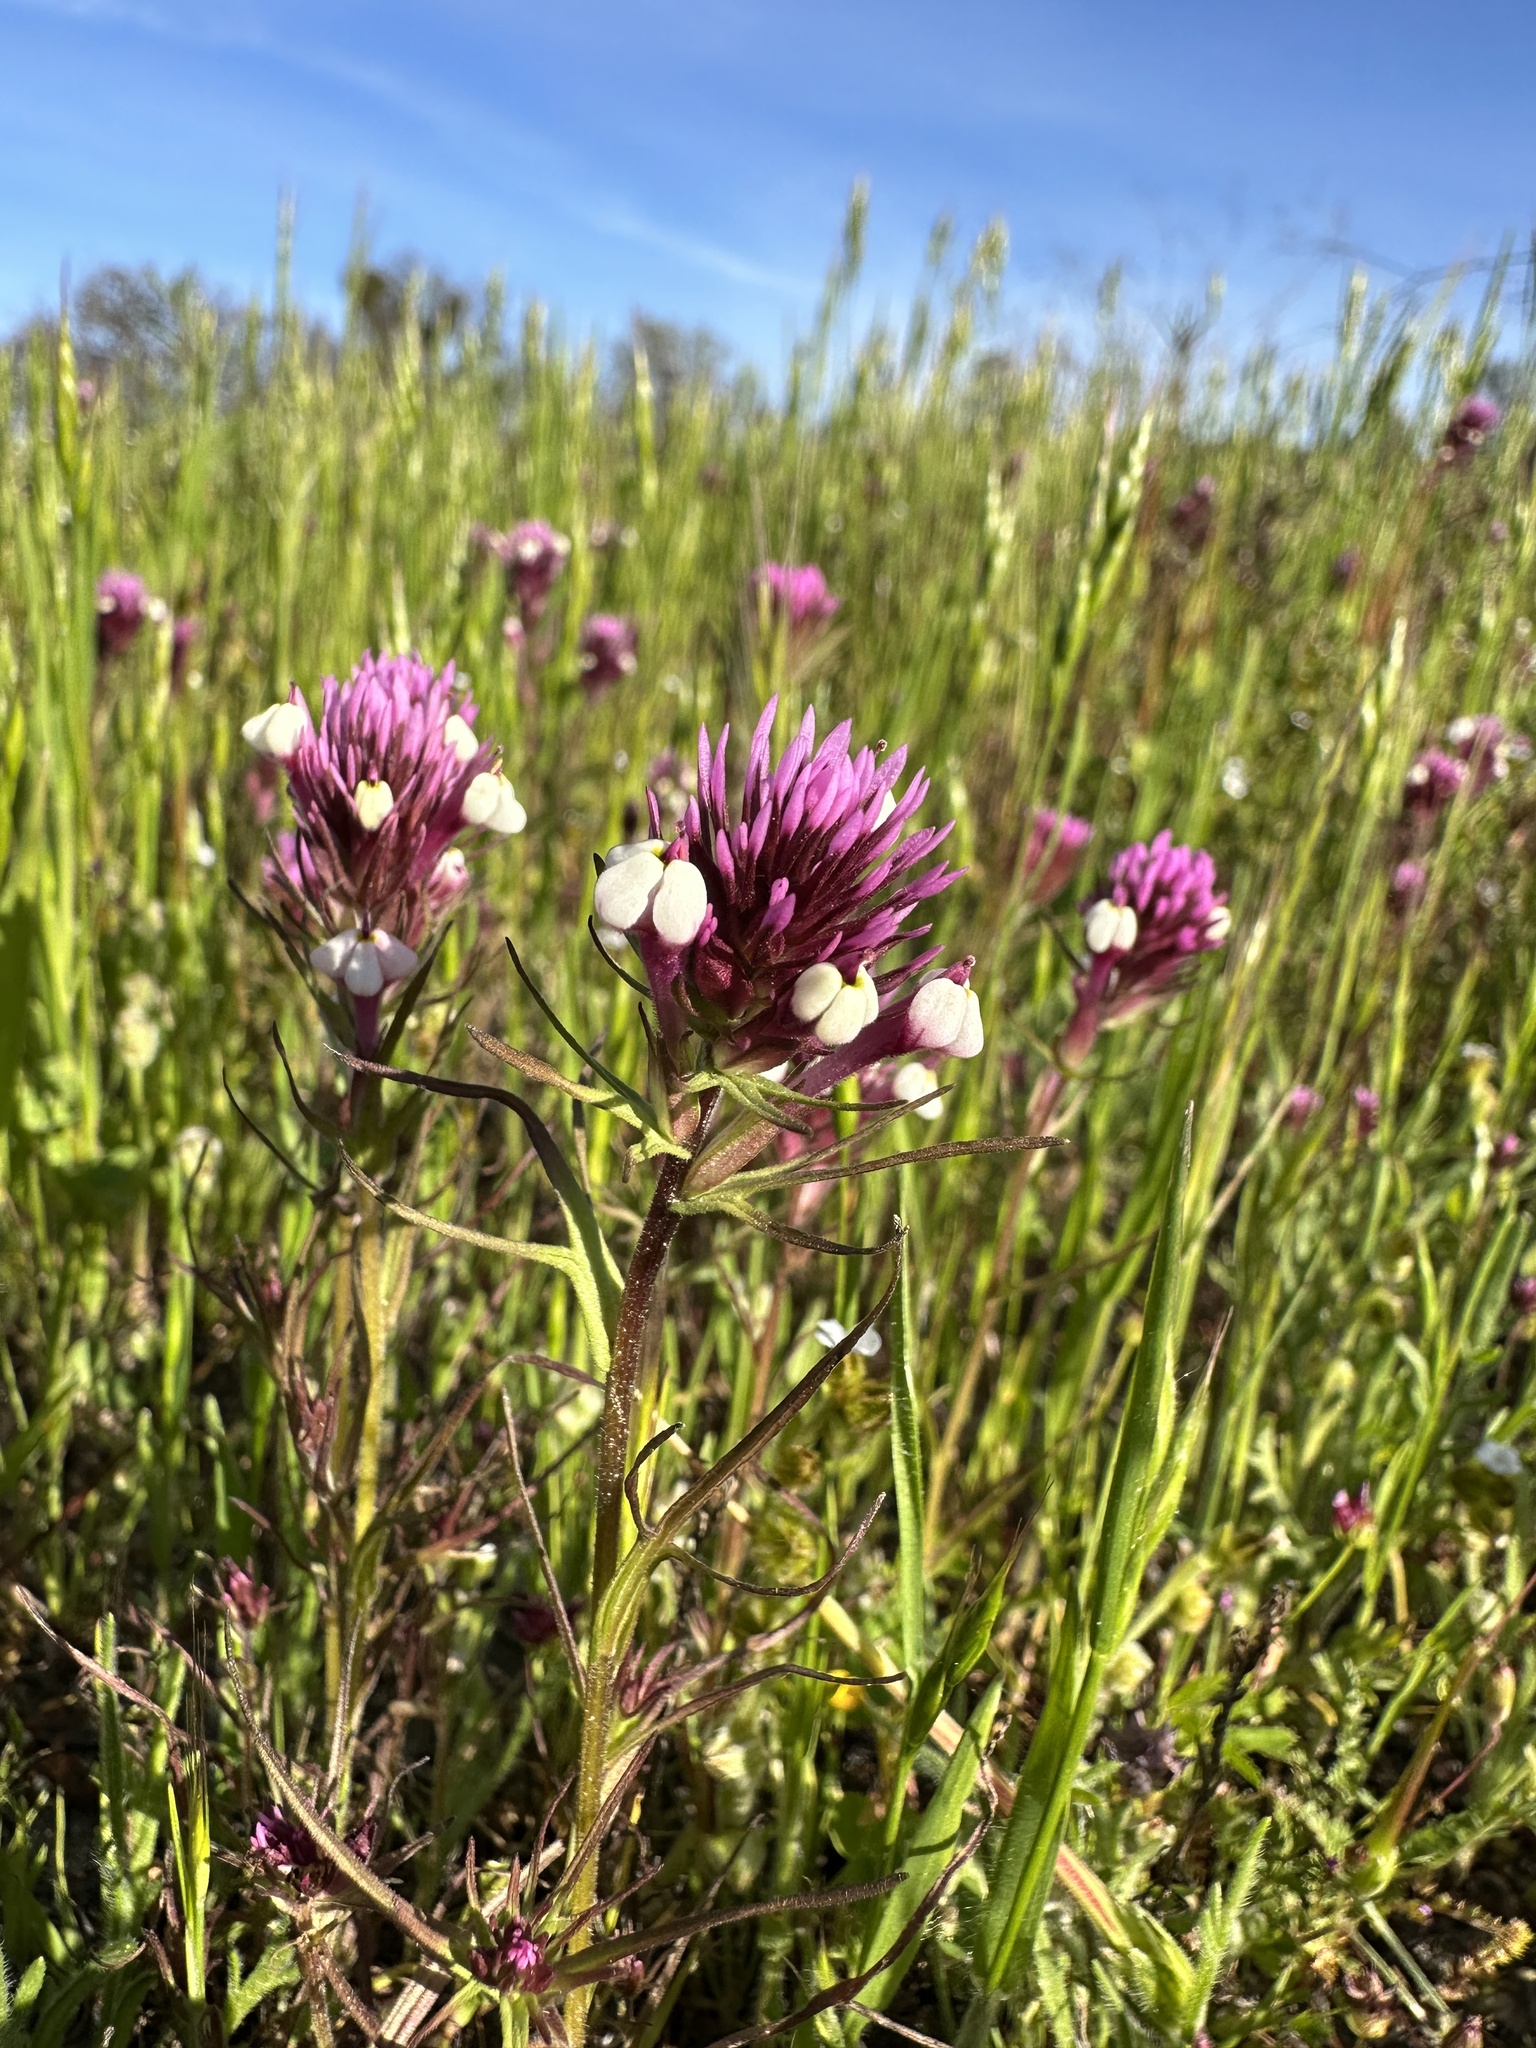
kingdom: Plantae
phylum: Tracheophyta
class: Magnoliopsida
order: Lamiales
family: Orobanchaceae
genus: Triphysaria
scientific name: Triphysaria eriantha
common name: Johnny-tuck
